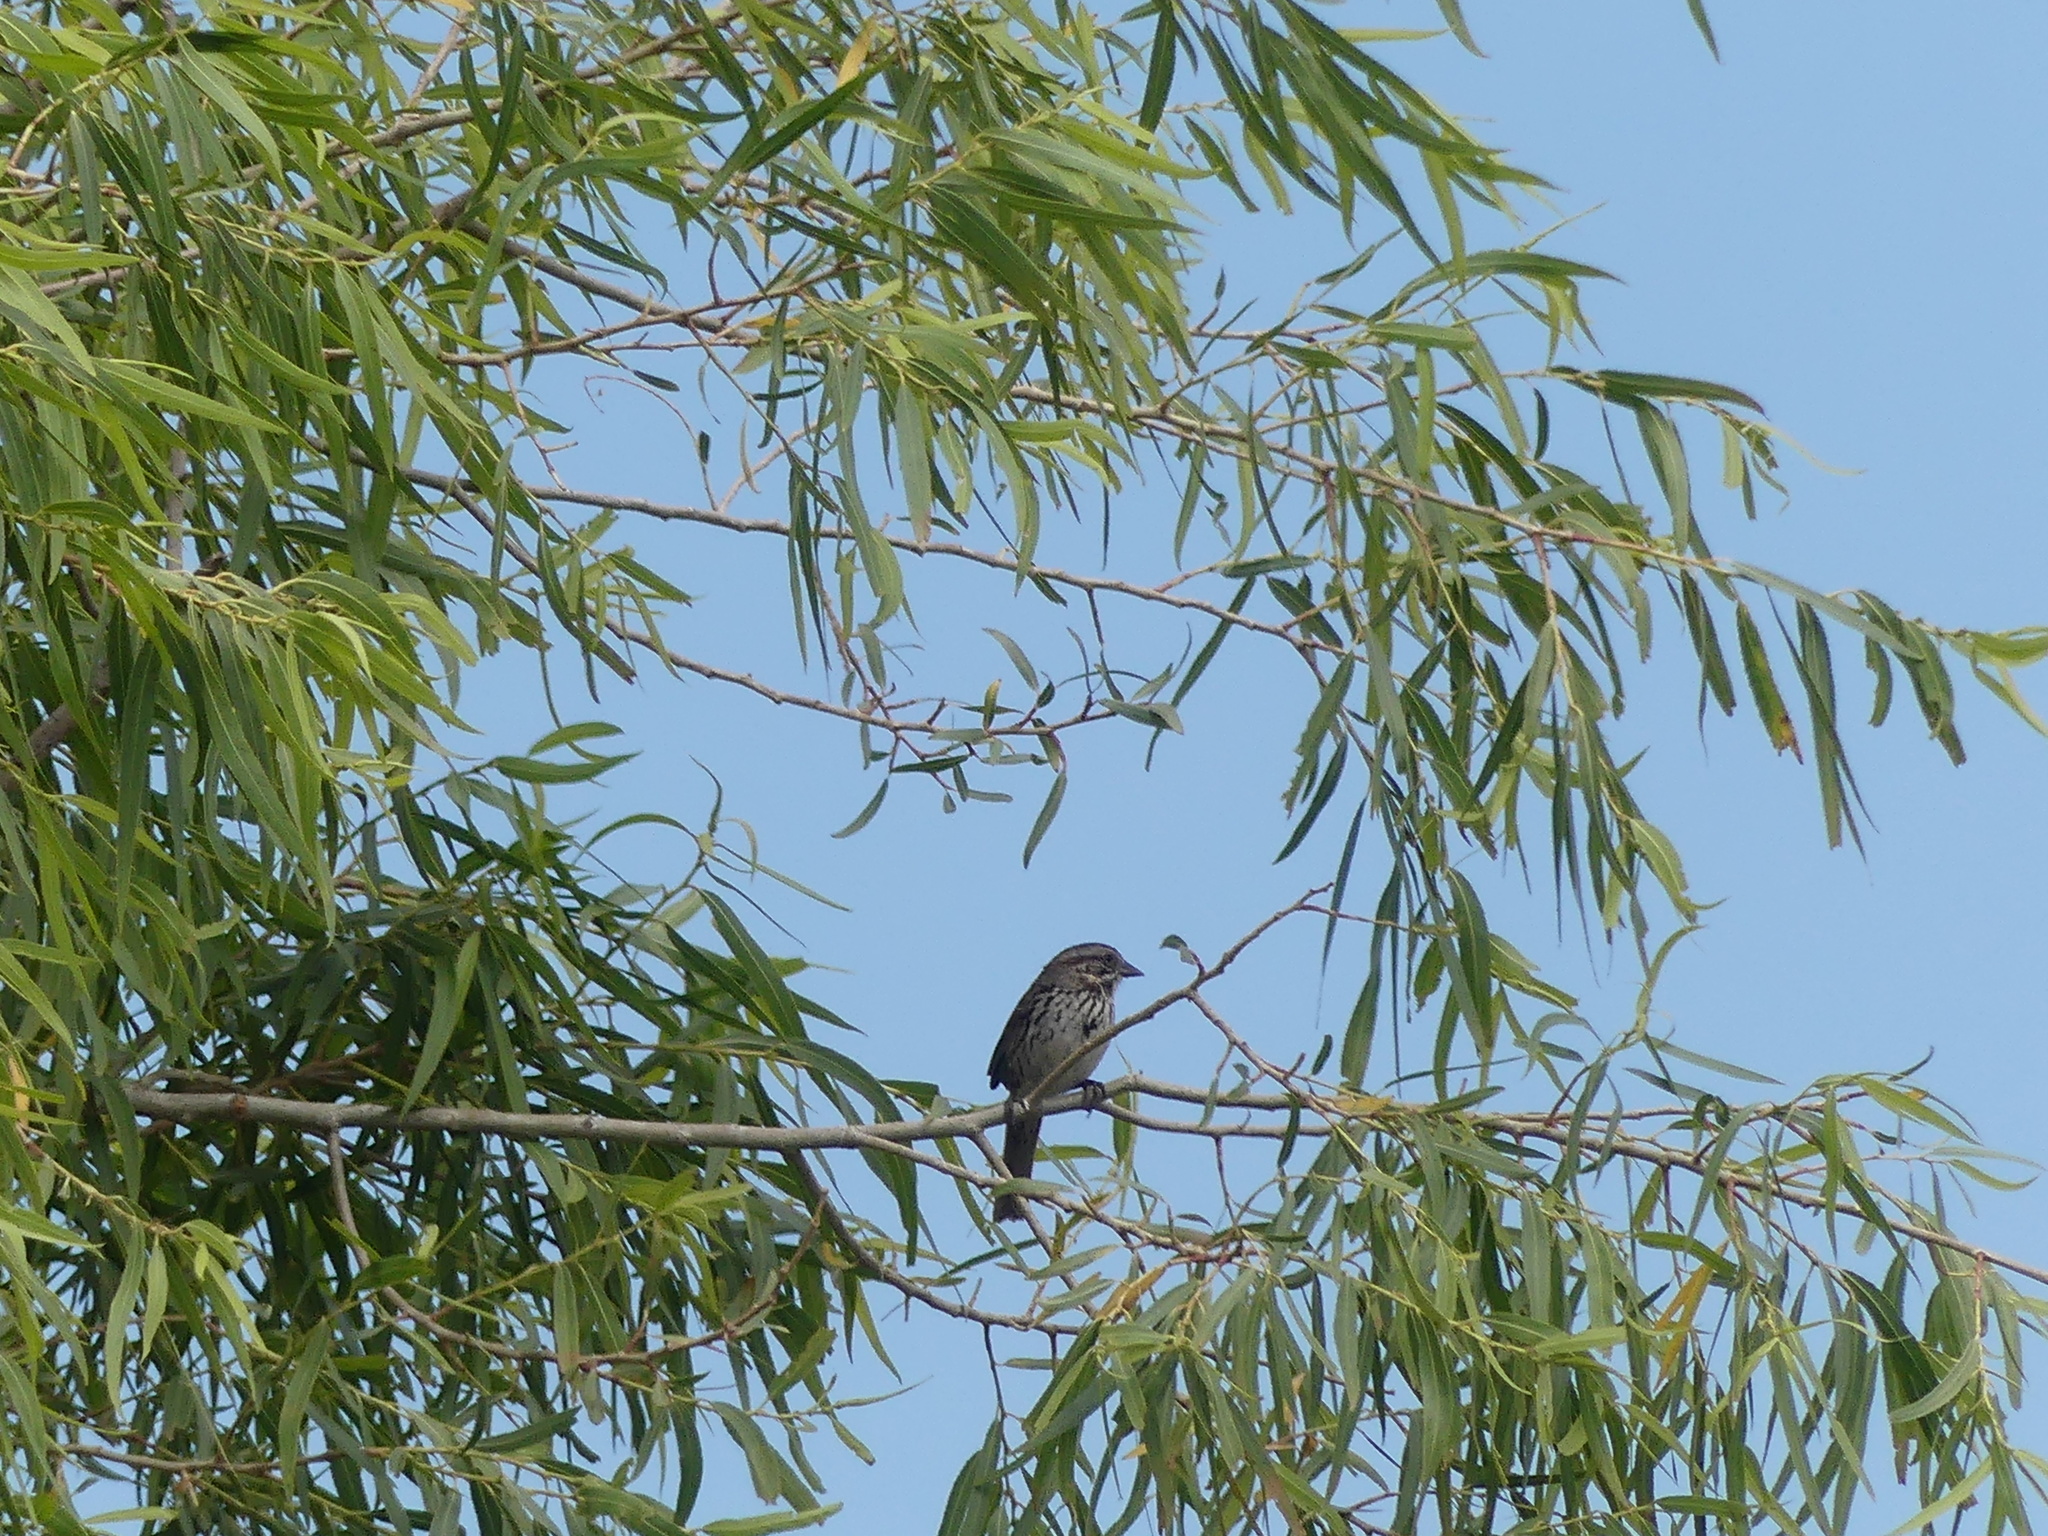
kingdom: Animalia
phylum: Chordata
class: Aves
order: Passeriformes
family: Passerellidae
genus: Melospiza
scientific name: Melospiza melodia
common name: Song sparrow
